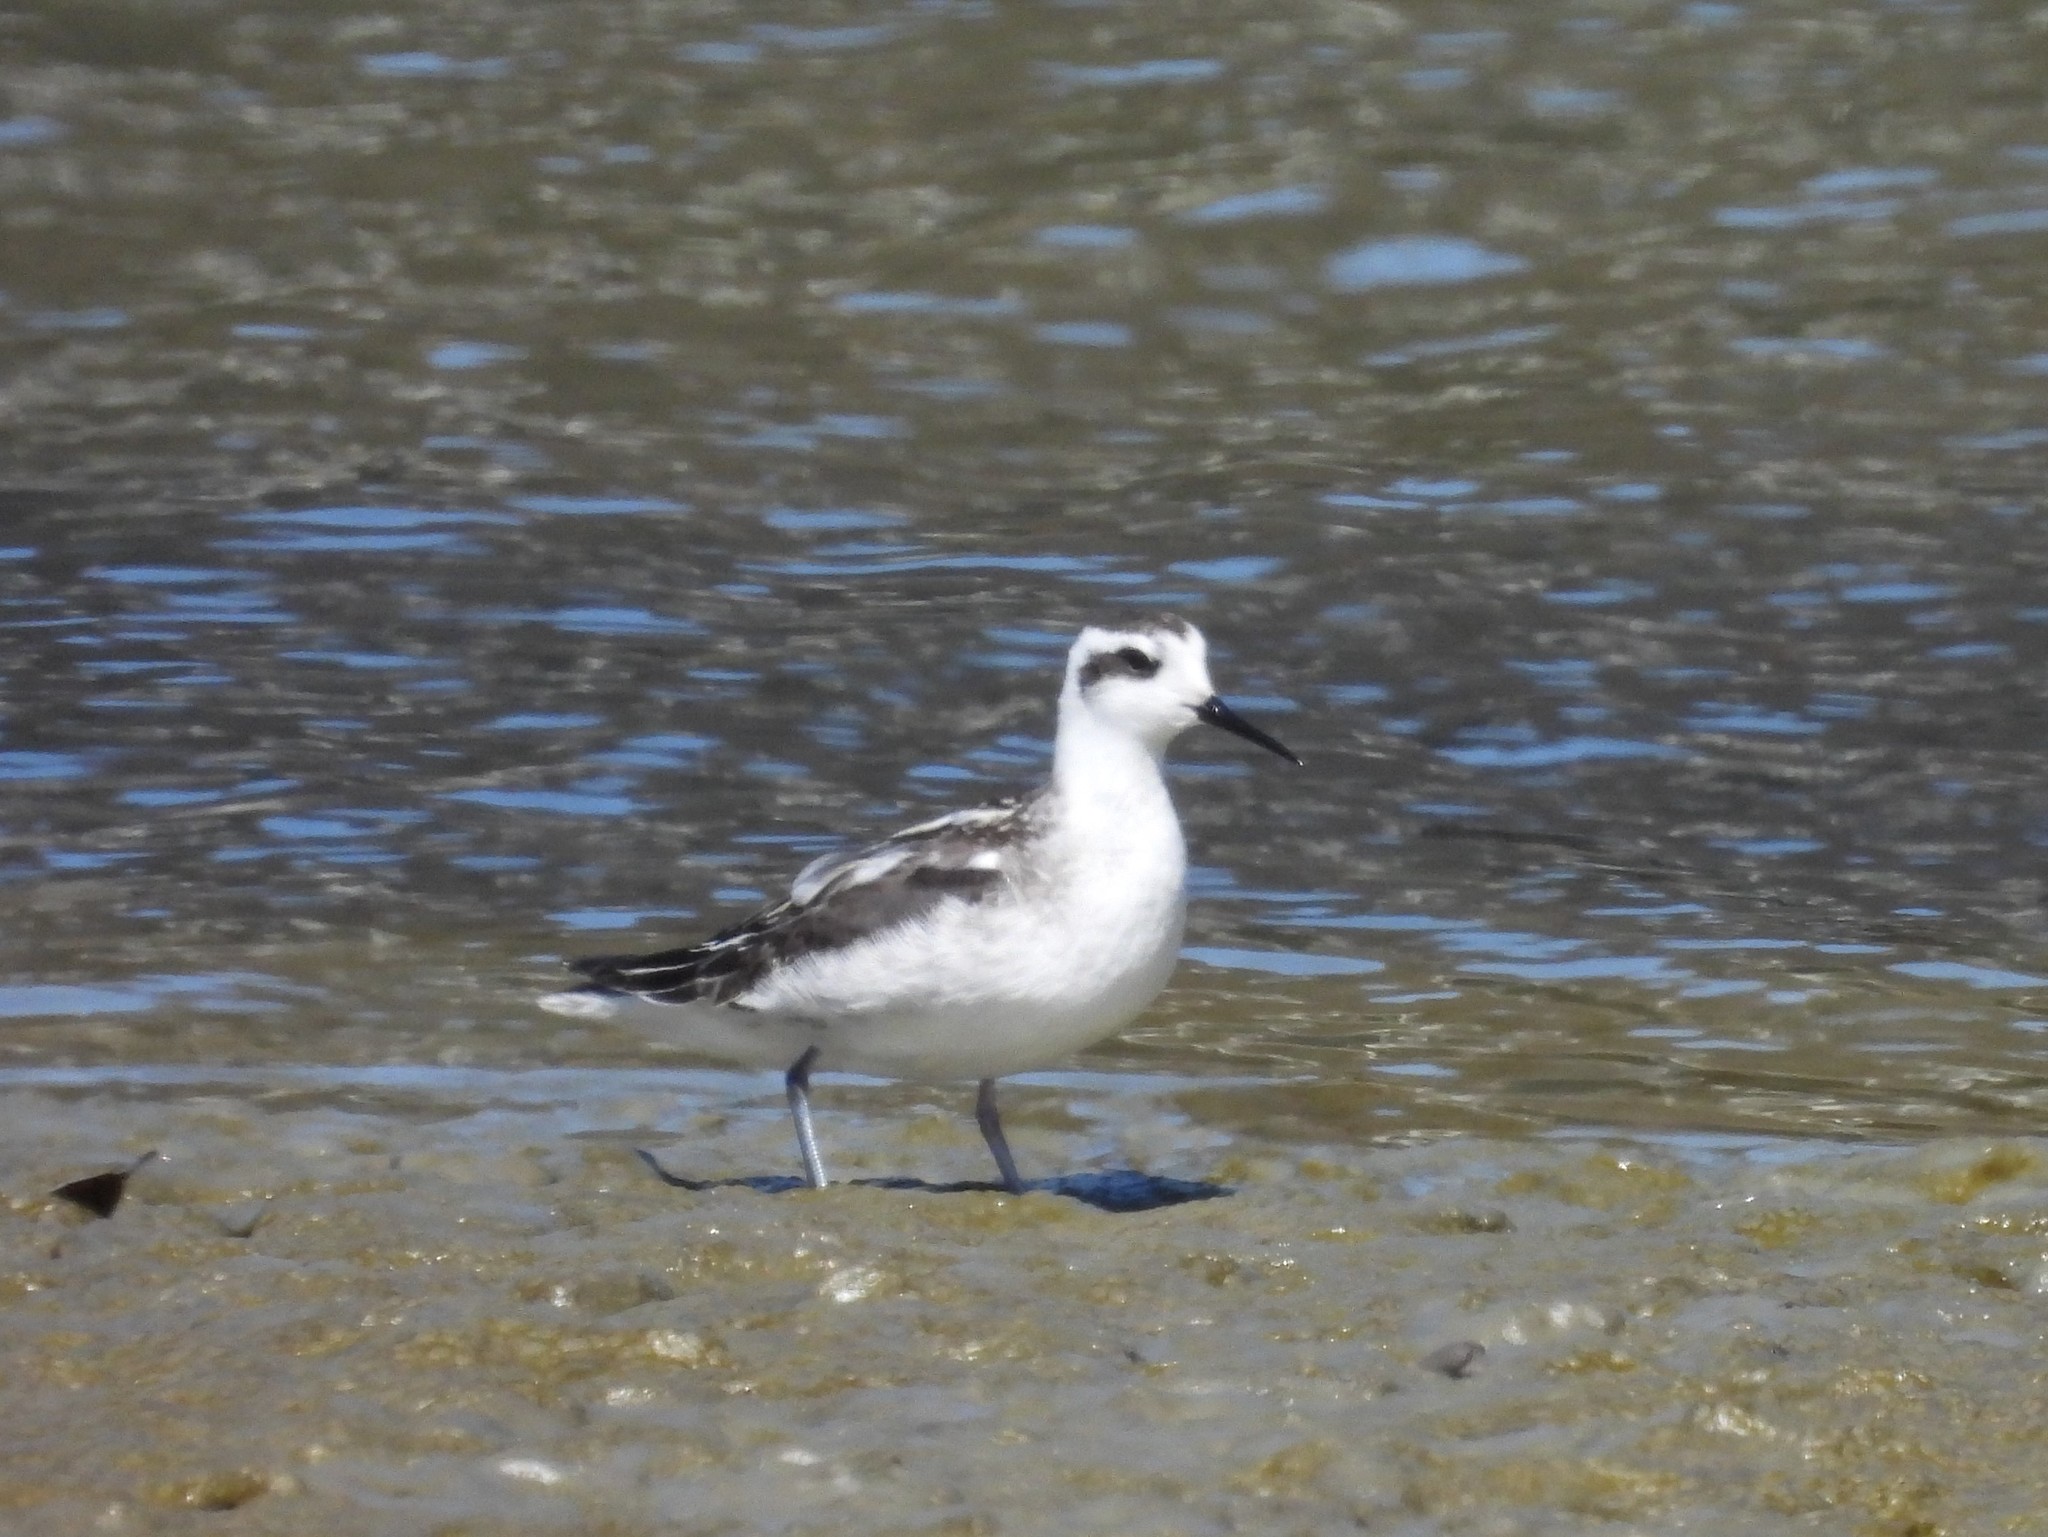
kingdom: Animalia
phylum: Chordata
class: Aves
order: Charadriiformes
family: Scolopacidae
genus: Phalaropus
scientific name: Phalaropus lobatus
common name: Red-necked phalarope
